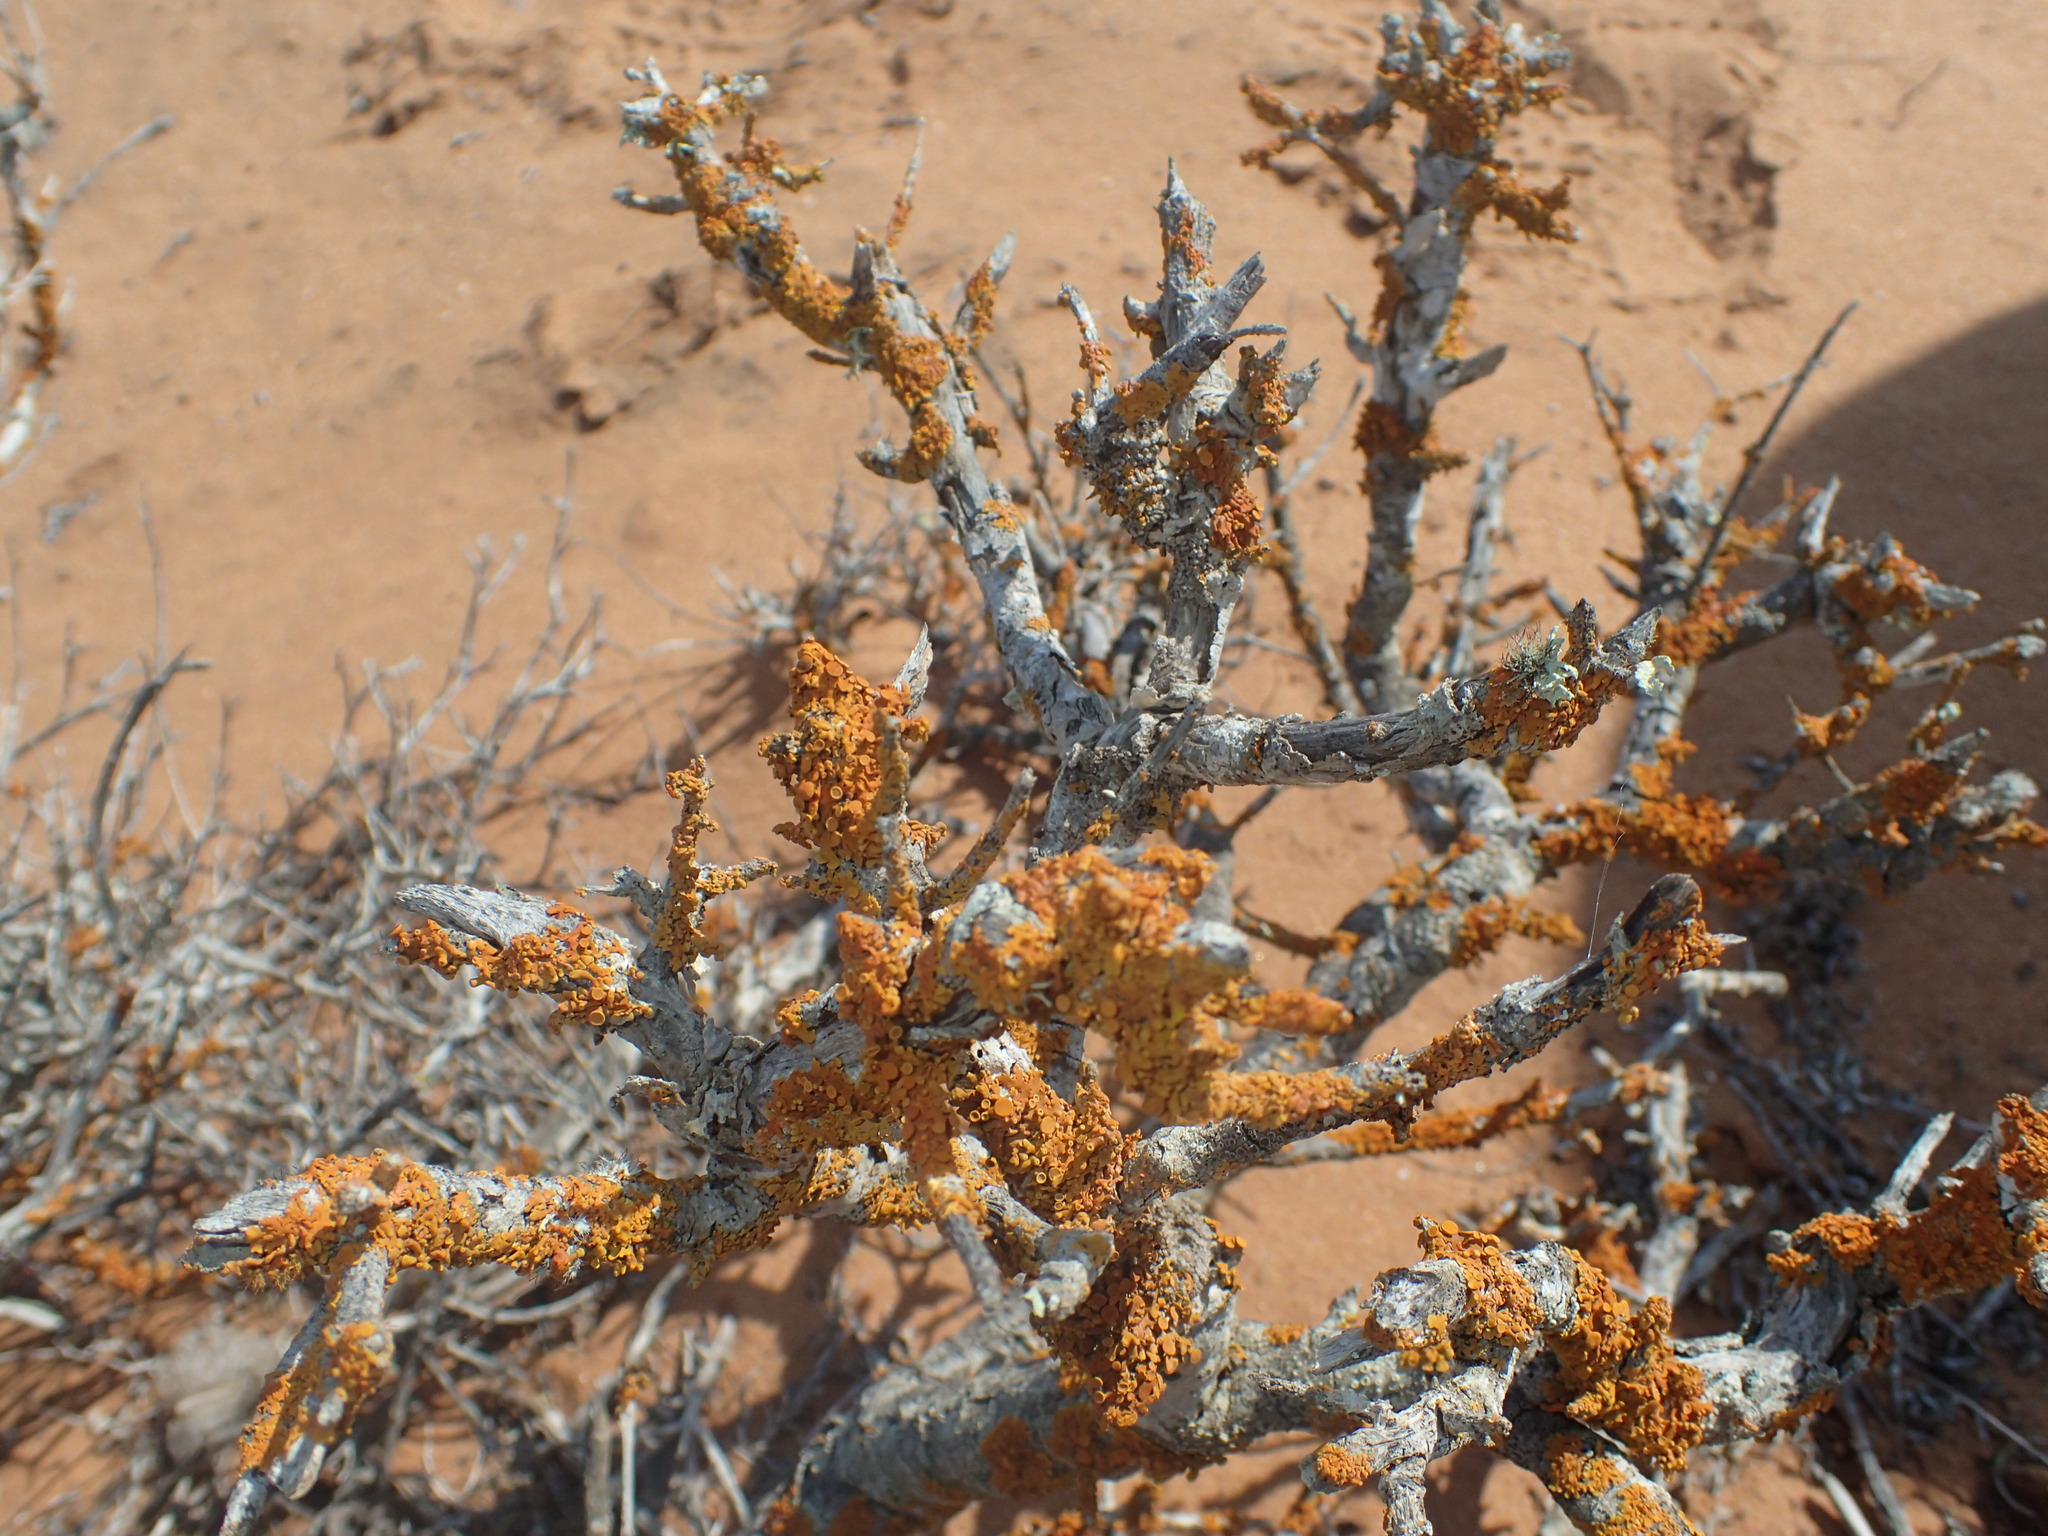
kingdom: Fungi
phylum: Ascomycota
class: Lecanoromycetes
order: Teloschistales
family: Teloschistaceae
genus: Dufourea
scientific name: Dufourea turbinata
